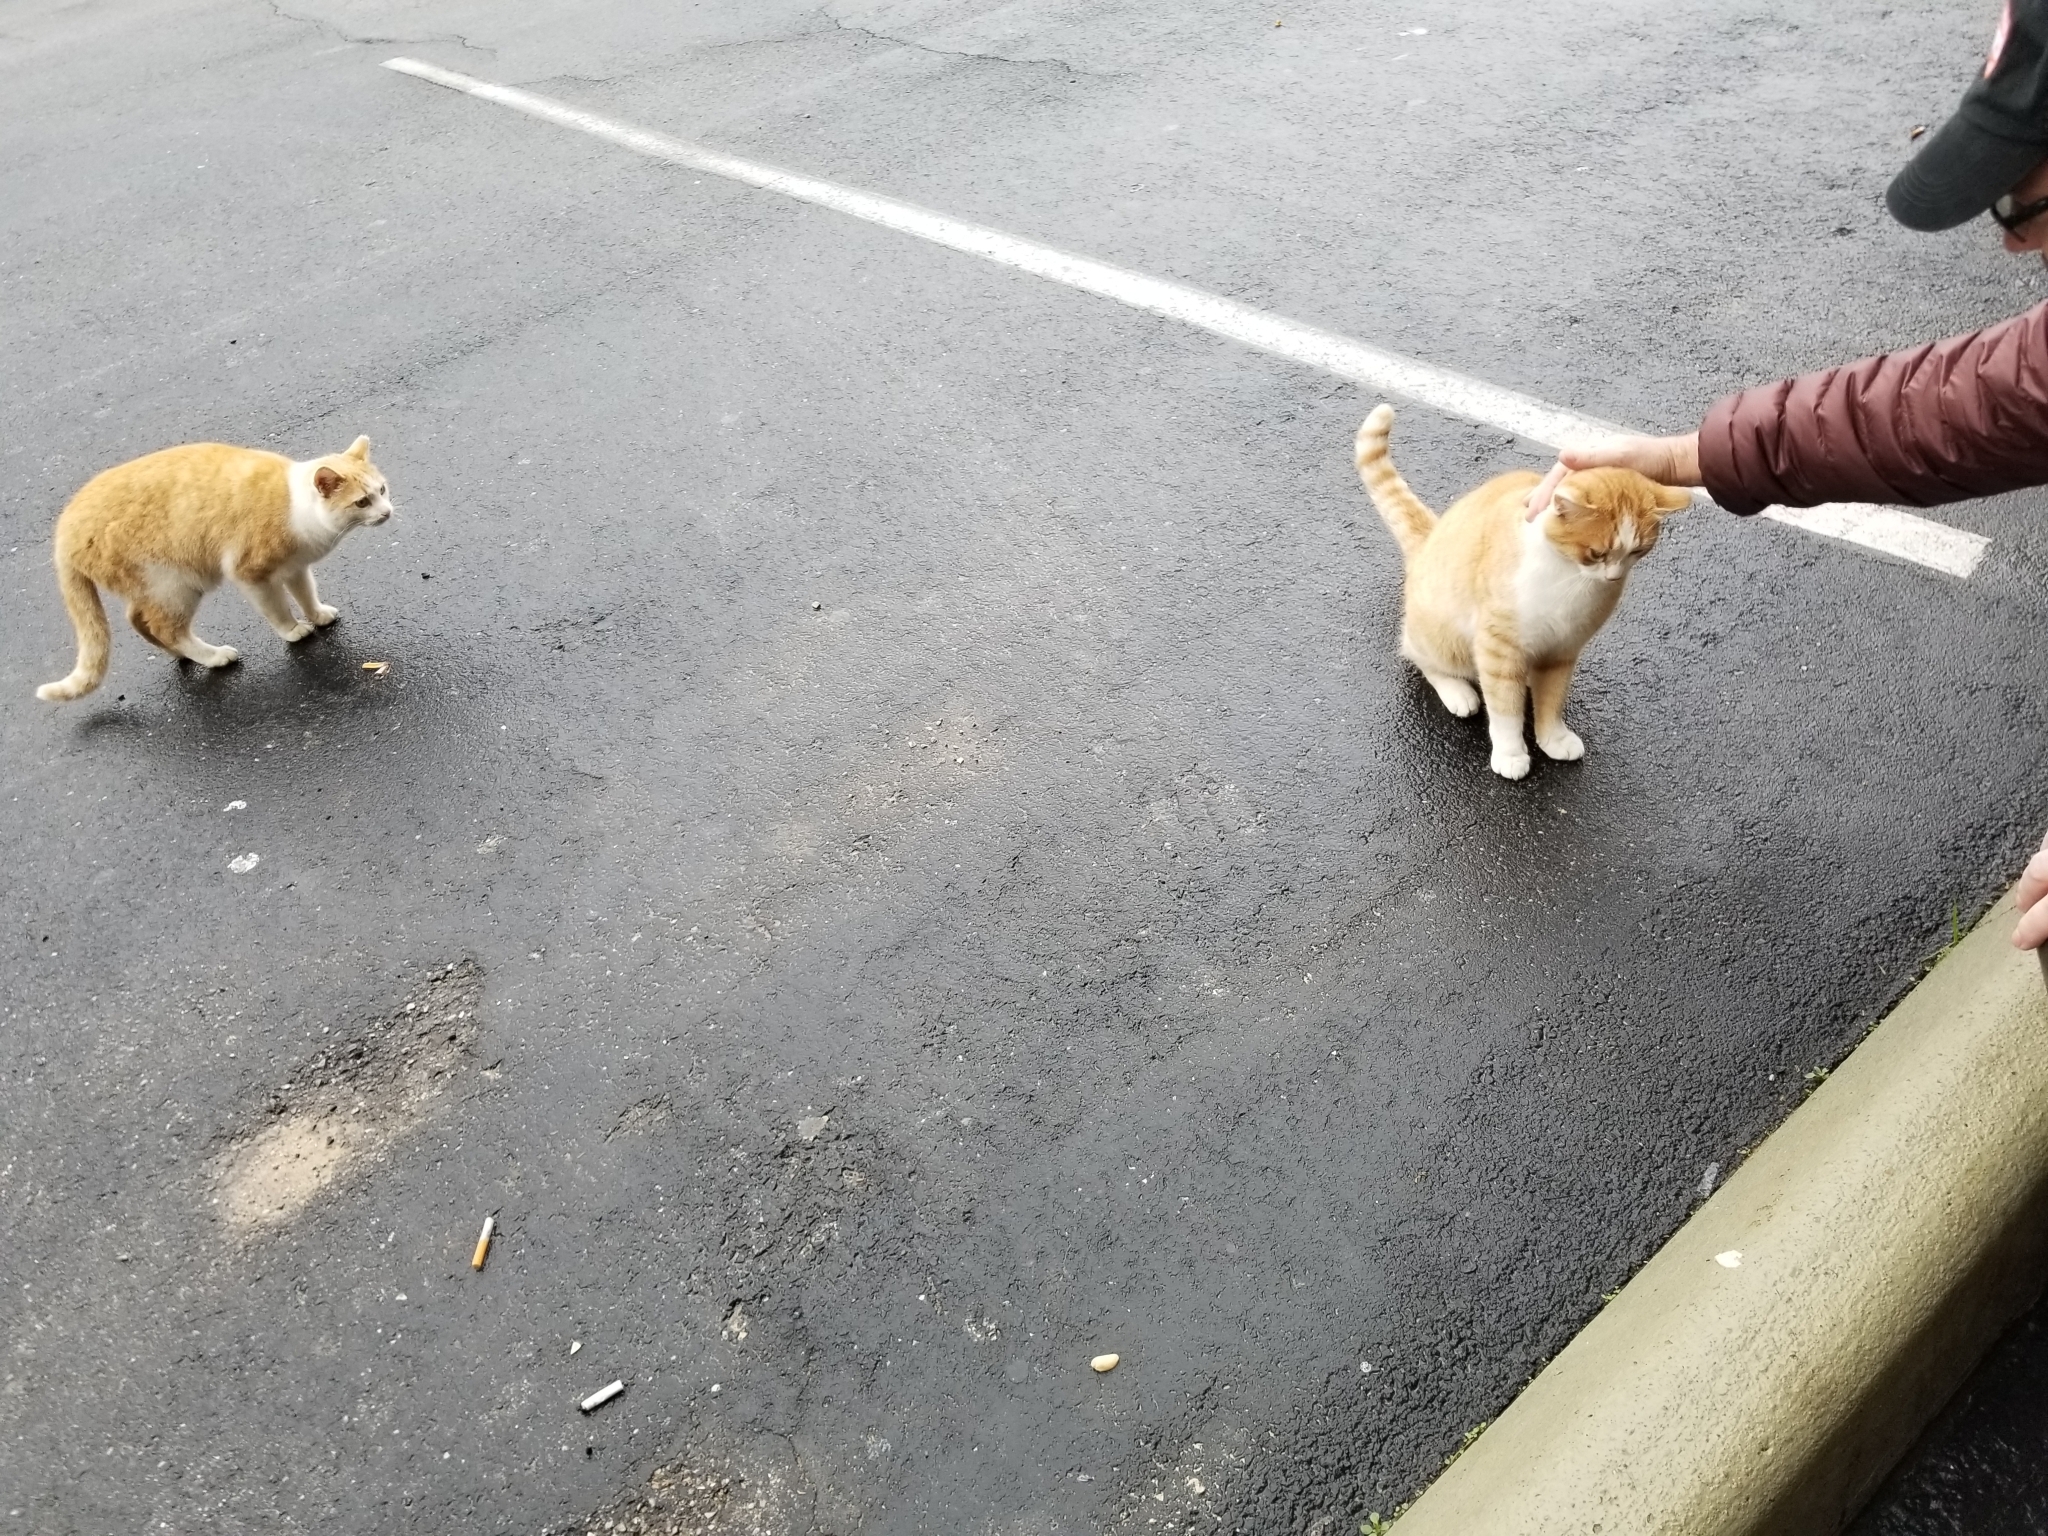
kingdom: Animalia
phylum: Chordata
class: Mammalia
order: Carnivora
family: Felidae
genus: Felis
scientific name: Felis catus
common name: Domestic cat
